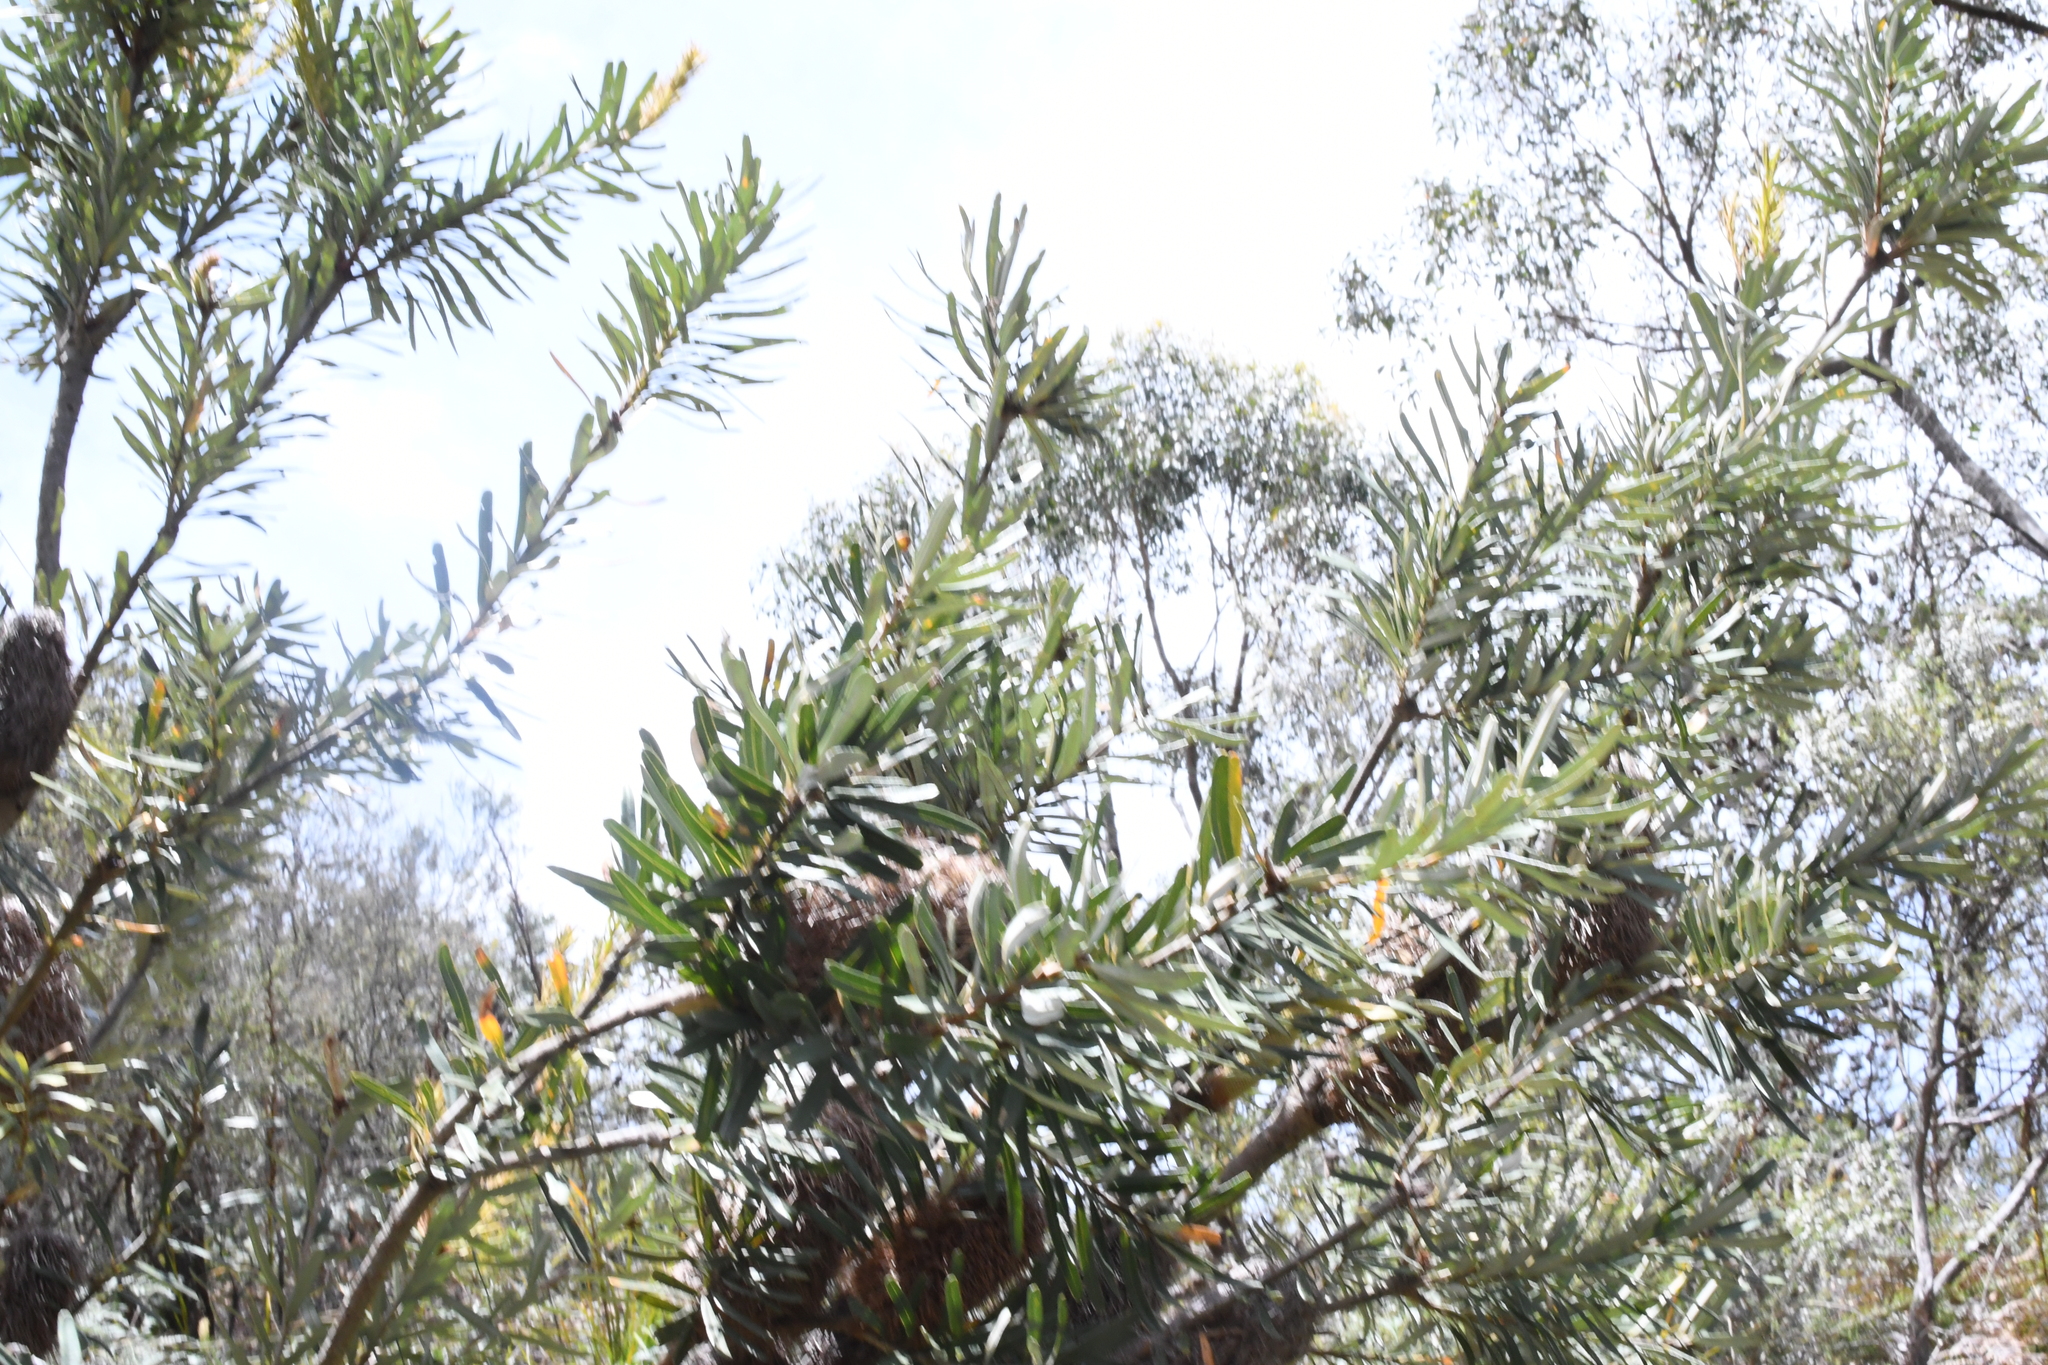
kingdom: Plantae
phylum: Tracheophyta
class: Magnoliopsida
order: Proteales
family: Proteaceae
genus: Banksia
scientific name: Banksia marginata
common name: Silver banksia
